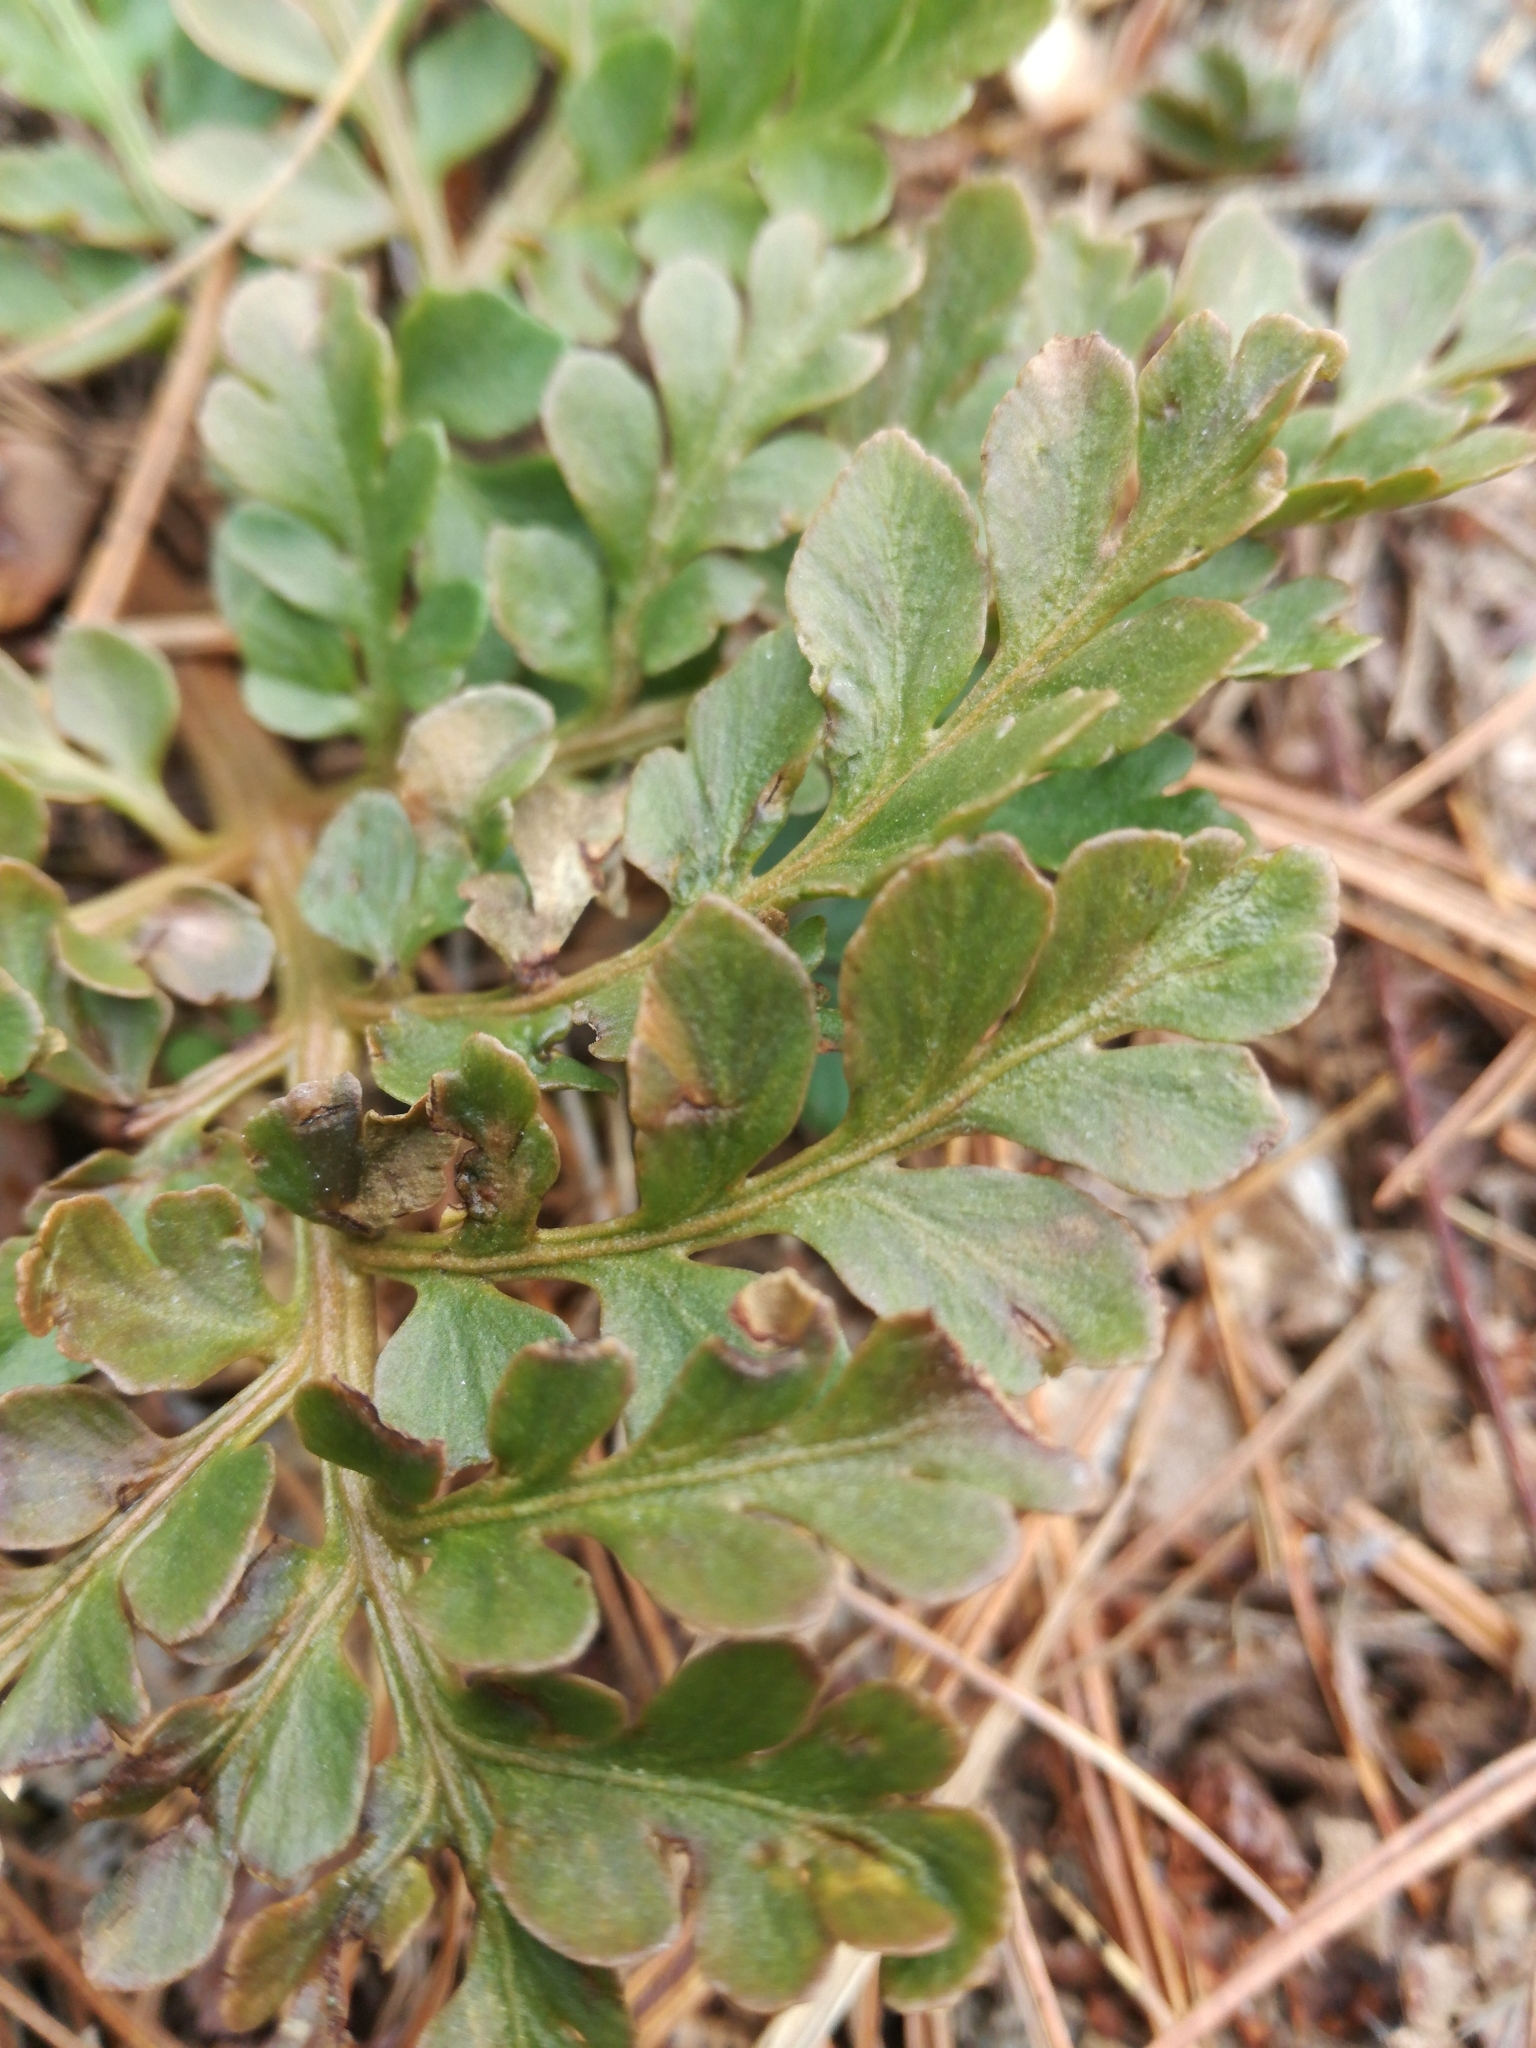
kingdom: Plantae
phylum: Tracheophyta
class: Polypodiopsida
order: Ophioglossales
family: Ophioglossaceae
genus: Sceptridium
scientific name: Sceptridium multifidum
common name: Leathery grape fern
